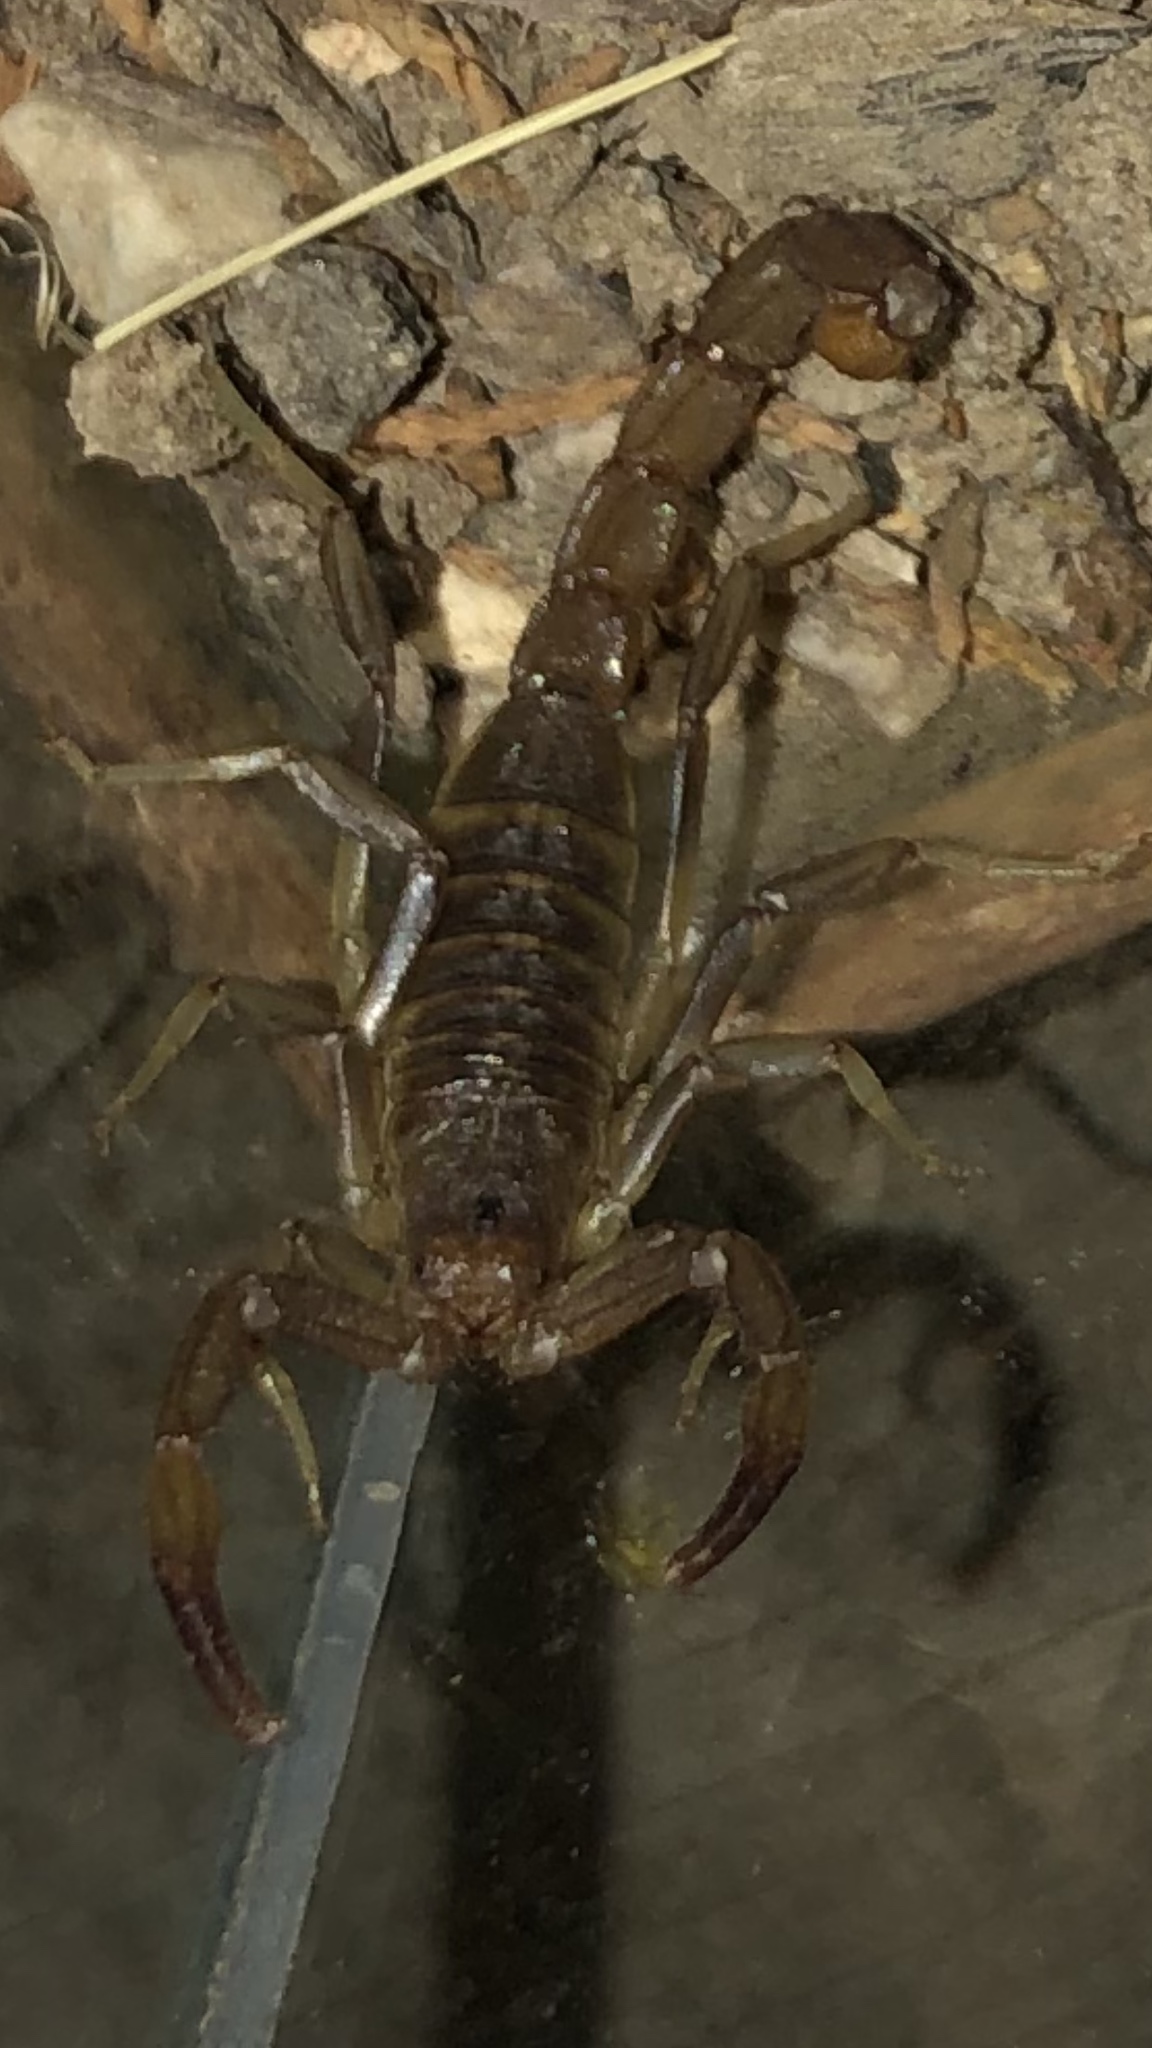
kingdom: Animalia
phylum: Arthropoda
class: Arachnida
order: Scorpiones
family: Vaejovidae
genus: Paravaejovis
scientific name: Paravaejovis puritanus
